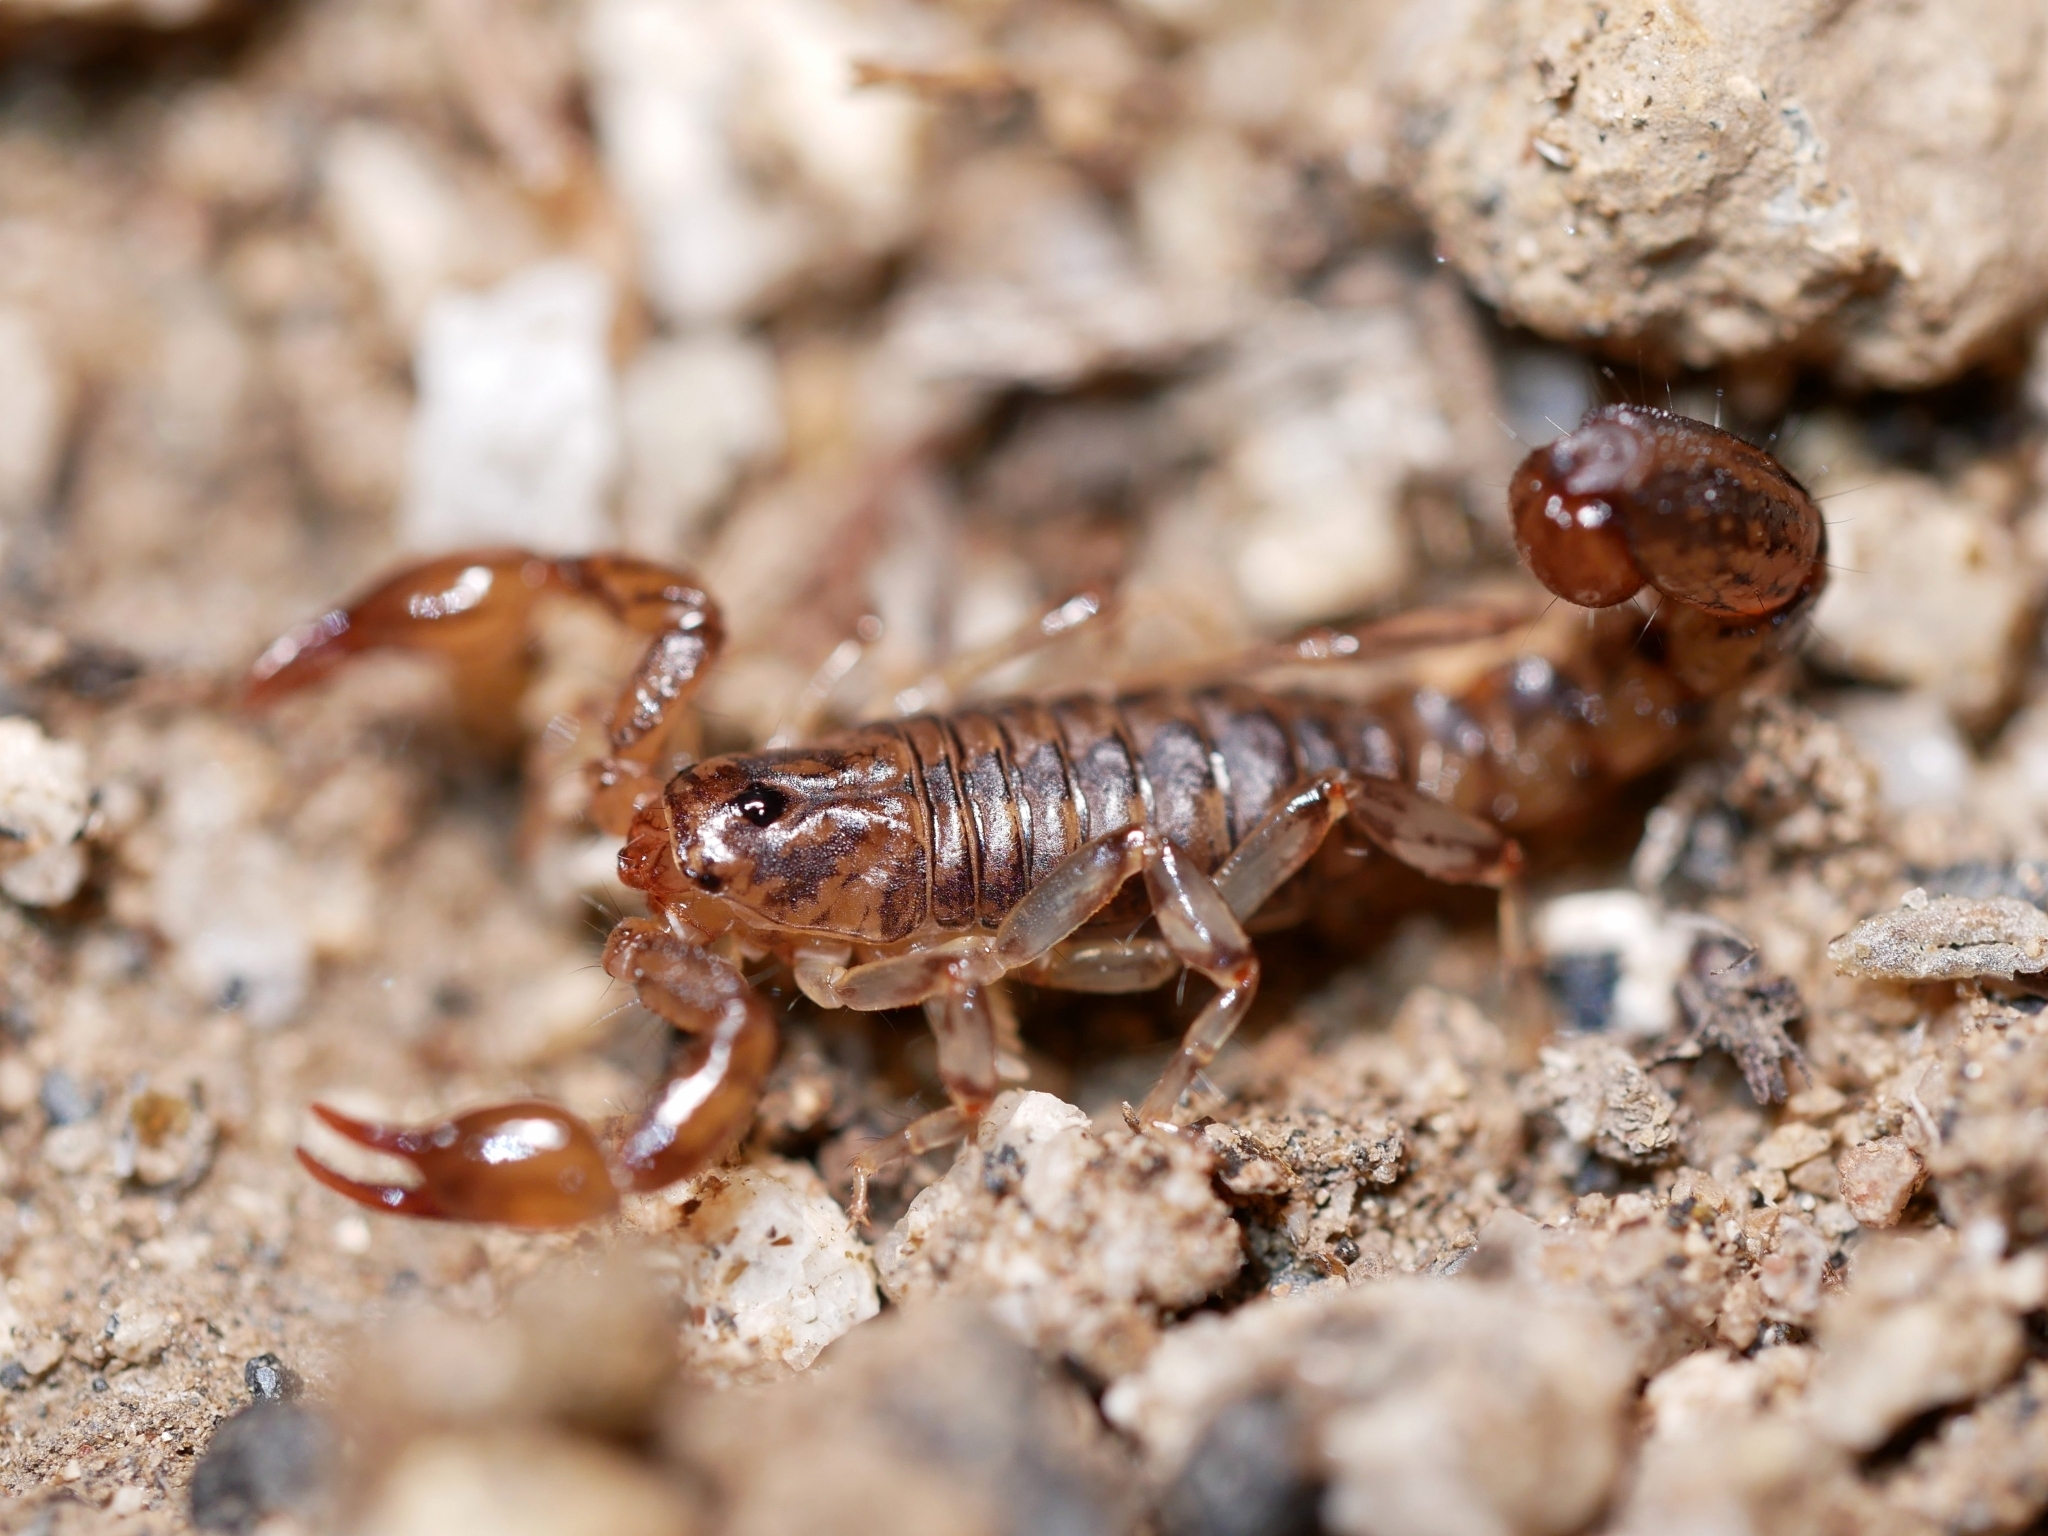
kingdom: Animalia
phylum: Arthropoda
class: Arachnida
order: Scorpiones
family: Superstitioniidae
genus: Superstitionia
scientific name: Superstitionia donensis
